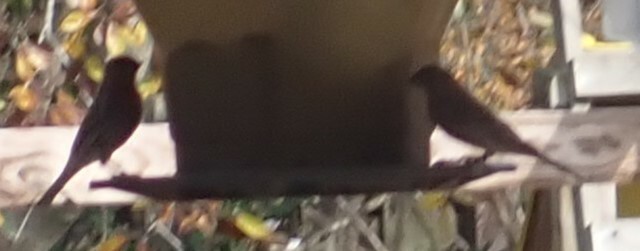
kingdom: Animalia
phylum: Chordata
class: Aves
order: Passeriformes
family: Fringillidae
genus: Haemorhous
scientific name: Haemorhous mexicanus
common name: House finch
